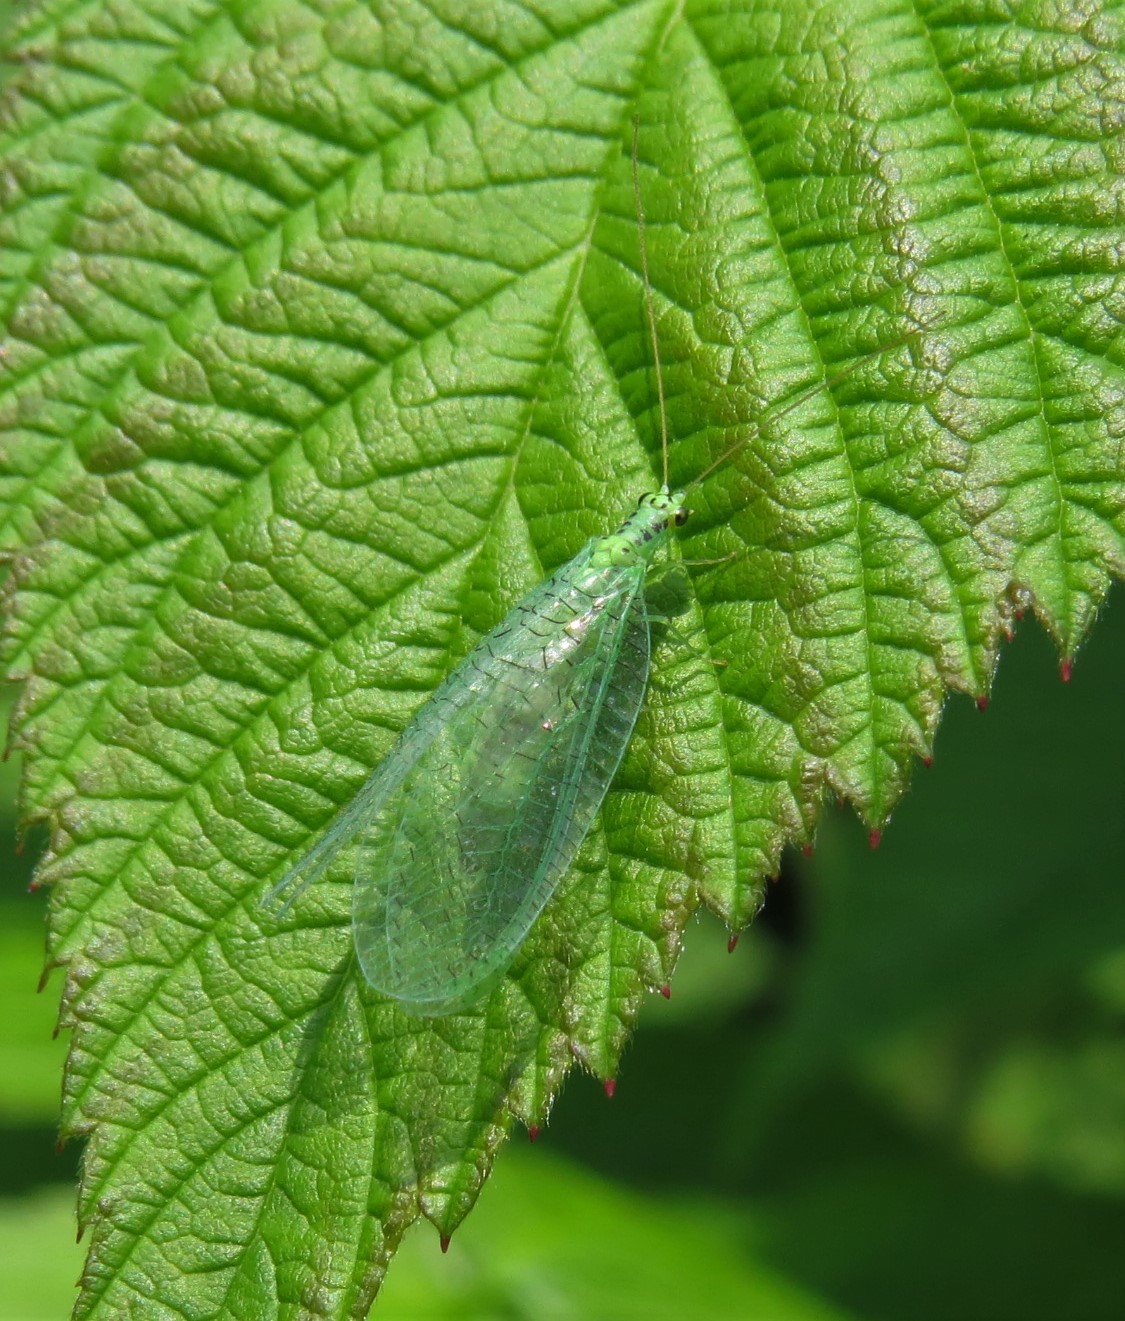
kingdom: Animalia
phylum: Arthropoda
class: Insecta
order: Neuroptera
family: Chrysopidae
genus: Chrysopa
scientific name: Chrysopa chi
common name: X-marked green lacewing
